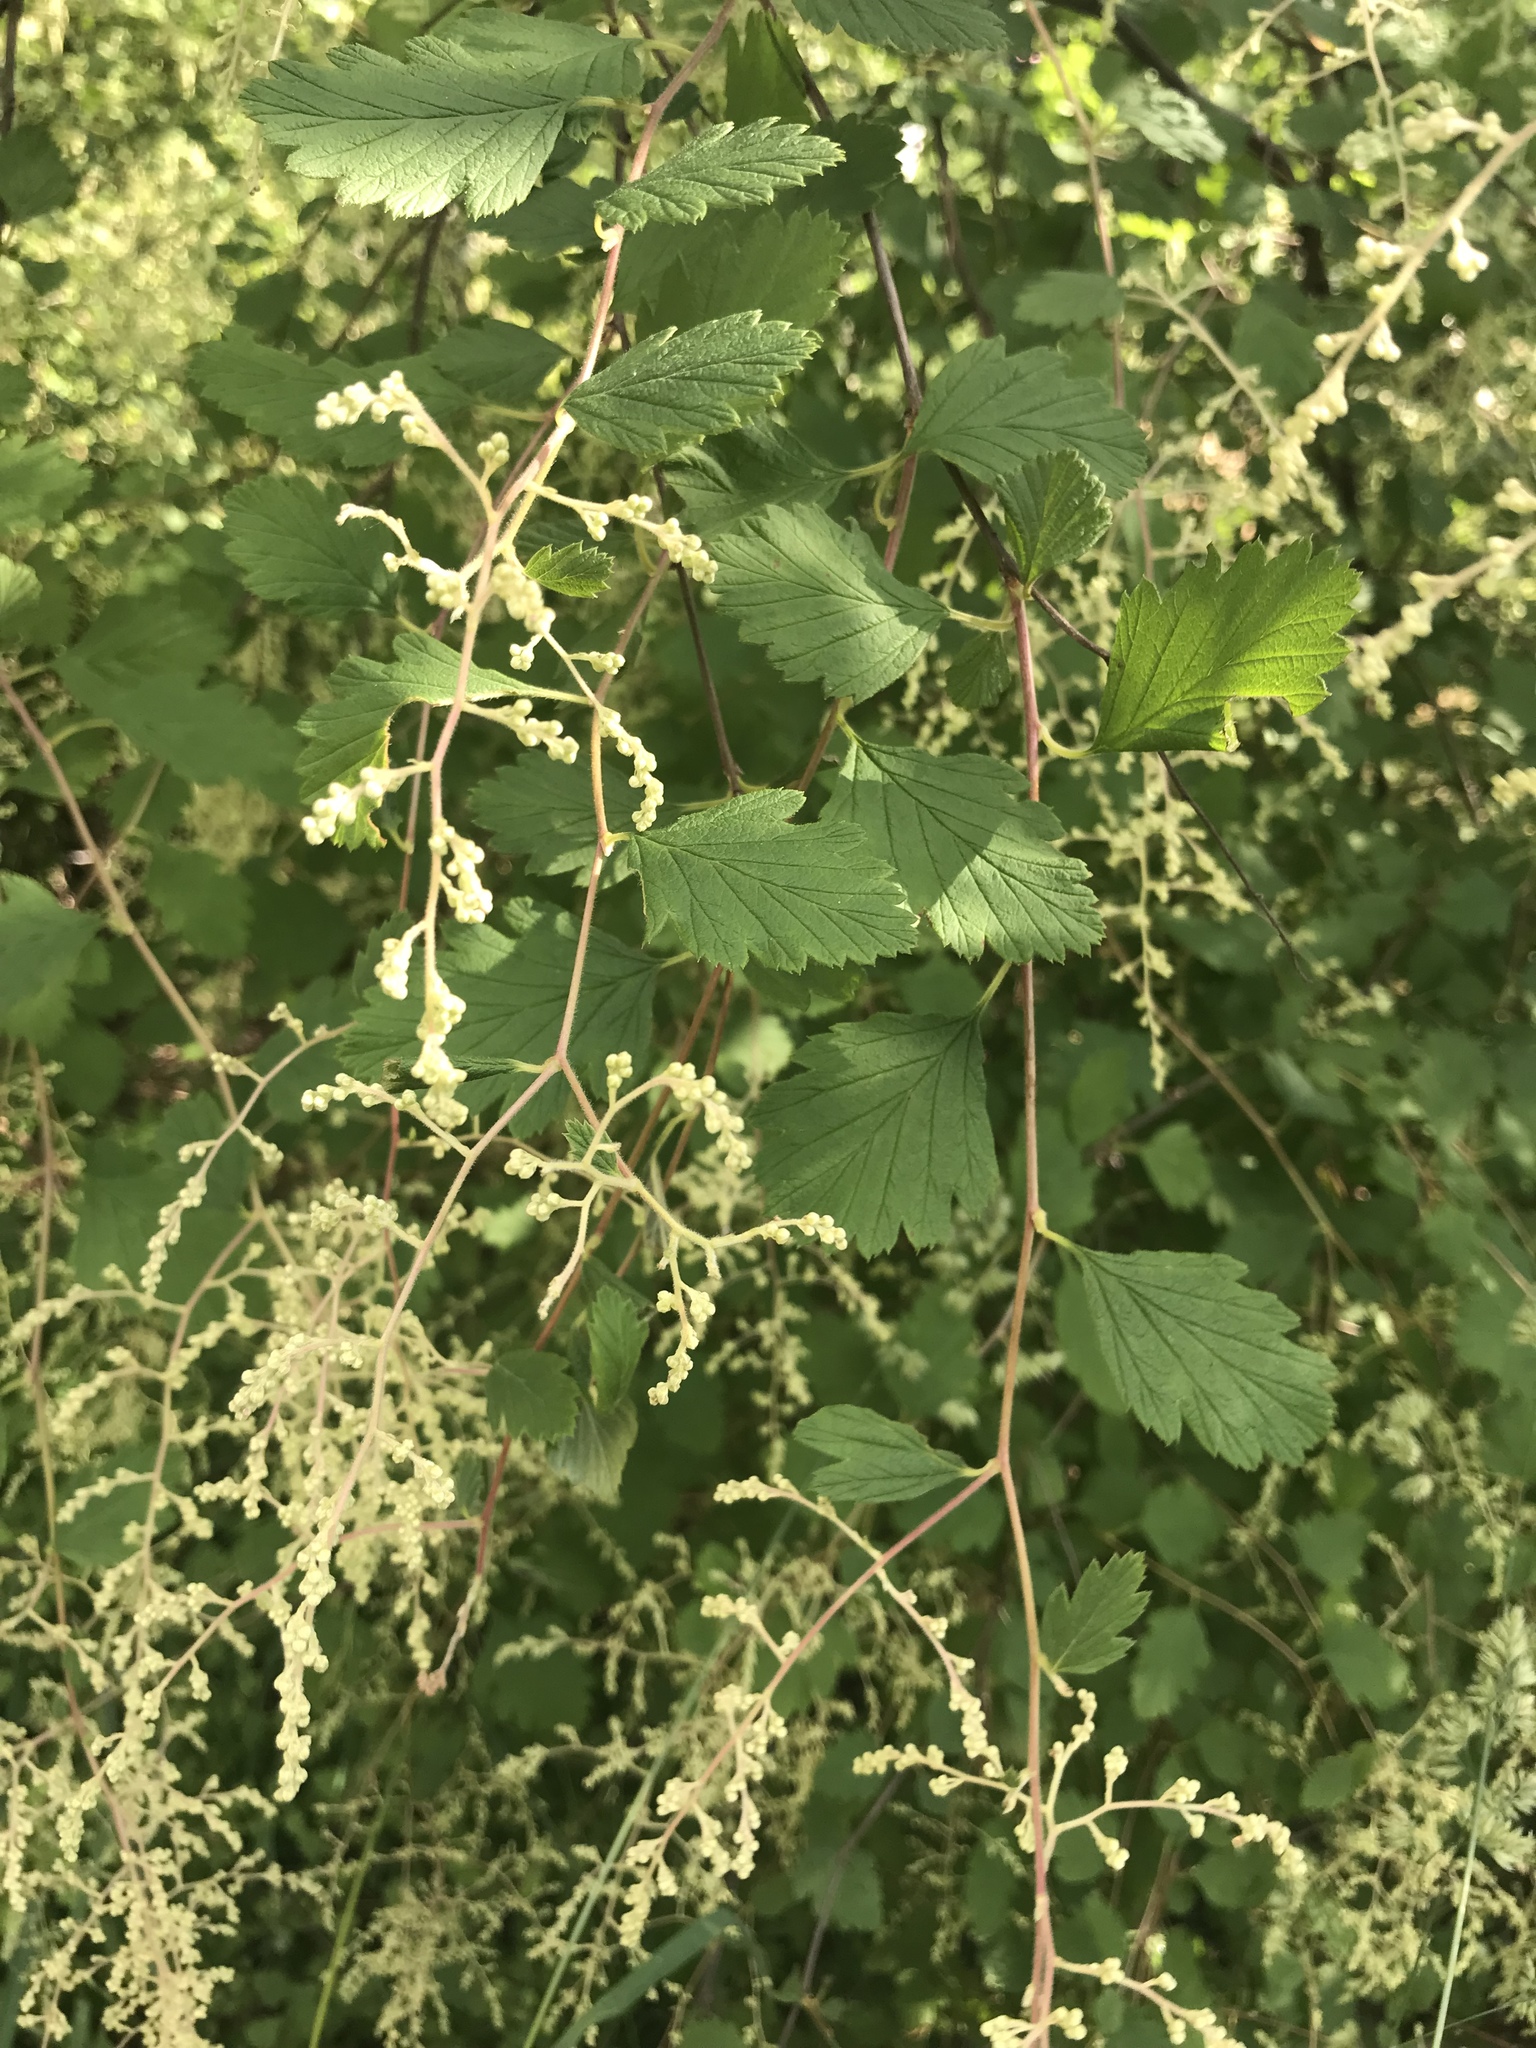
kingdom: Plantae
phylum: Tracheophyta
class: Magnoliopsida
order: Rosales
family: Rosaceae
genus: Holodiscus
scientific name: Holodiscus discolor
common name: Oceanspray
